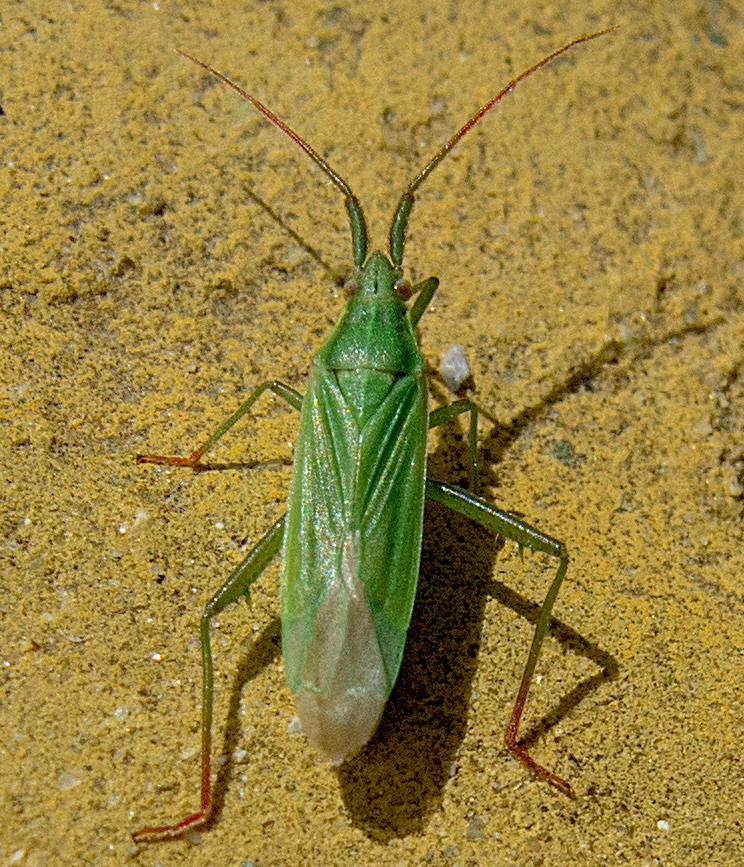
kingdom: Animalia
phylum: Arthropoda
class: Insecta
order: Hemiptera
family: Miridae
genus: Stenodema
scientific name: Stenodema calcarata
